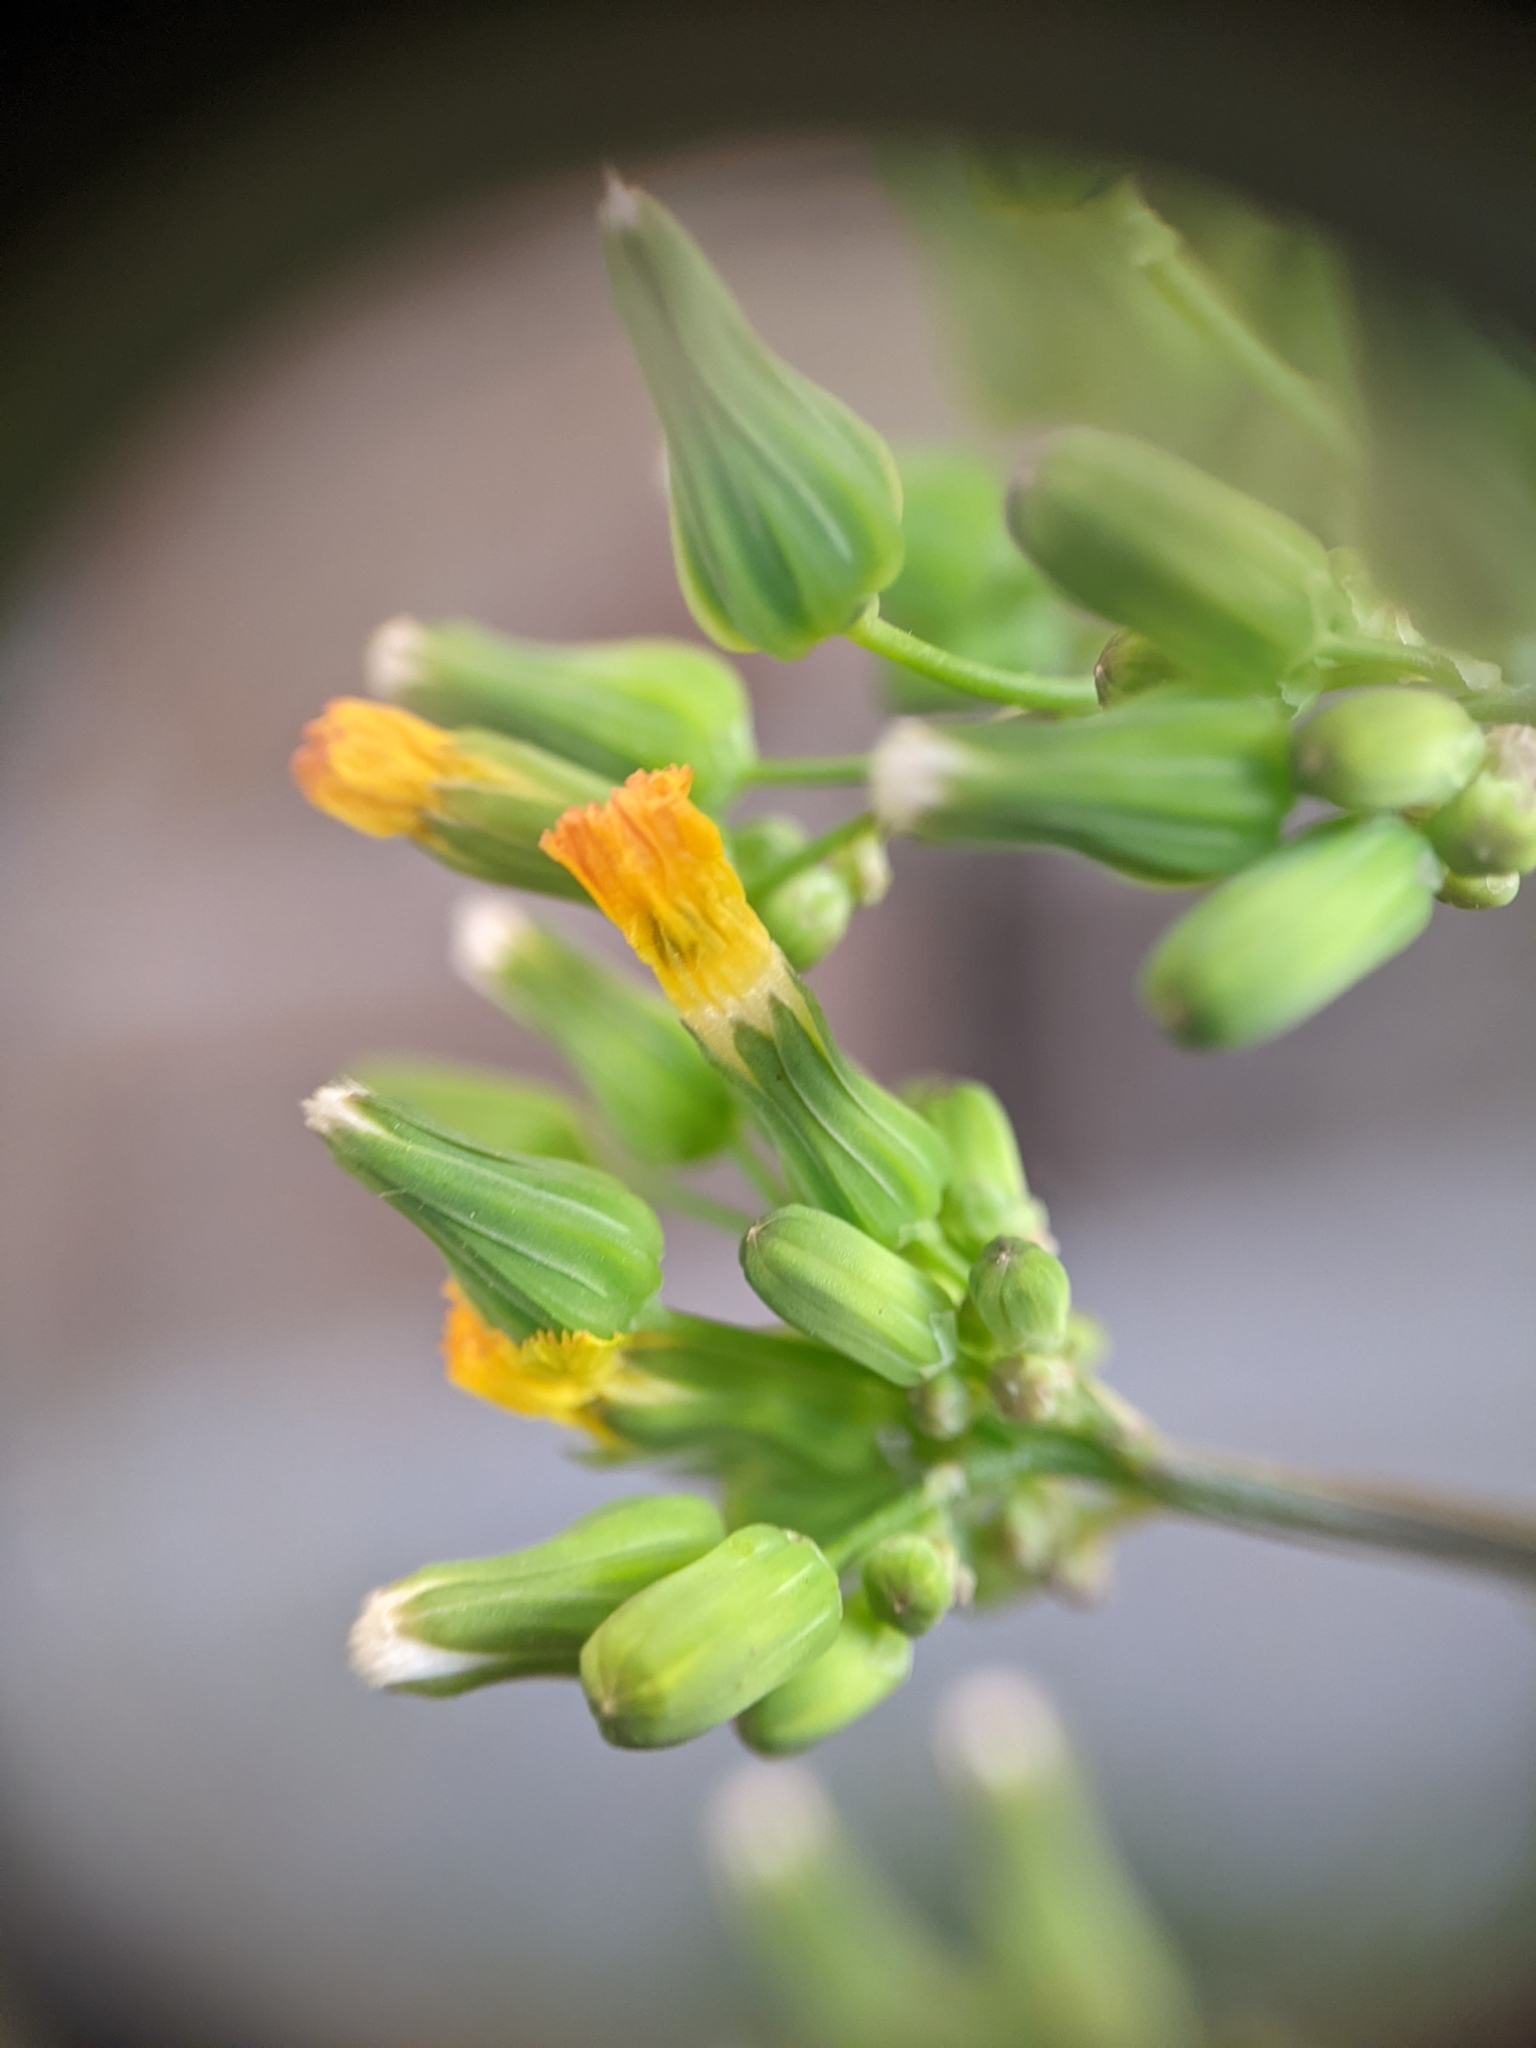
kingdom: Plantae
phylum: Tracheophyta
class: Magnoliopsida
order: Asterales
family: Asteraceae
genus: Youngia
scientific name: Youngia japonica
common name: Oriental false hawksbeard
